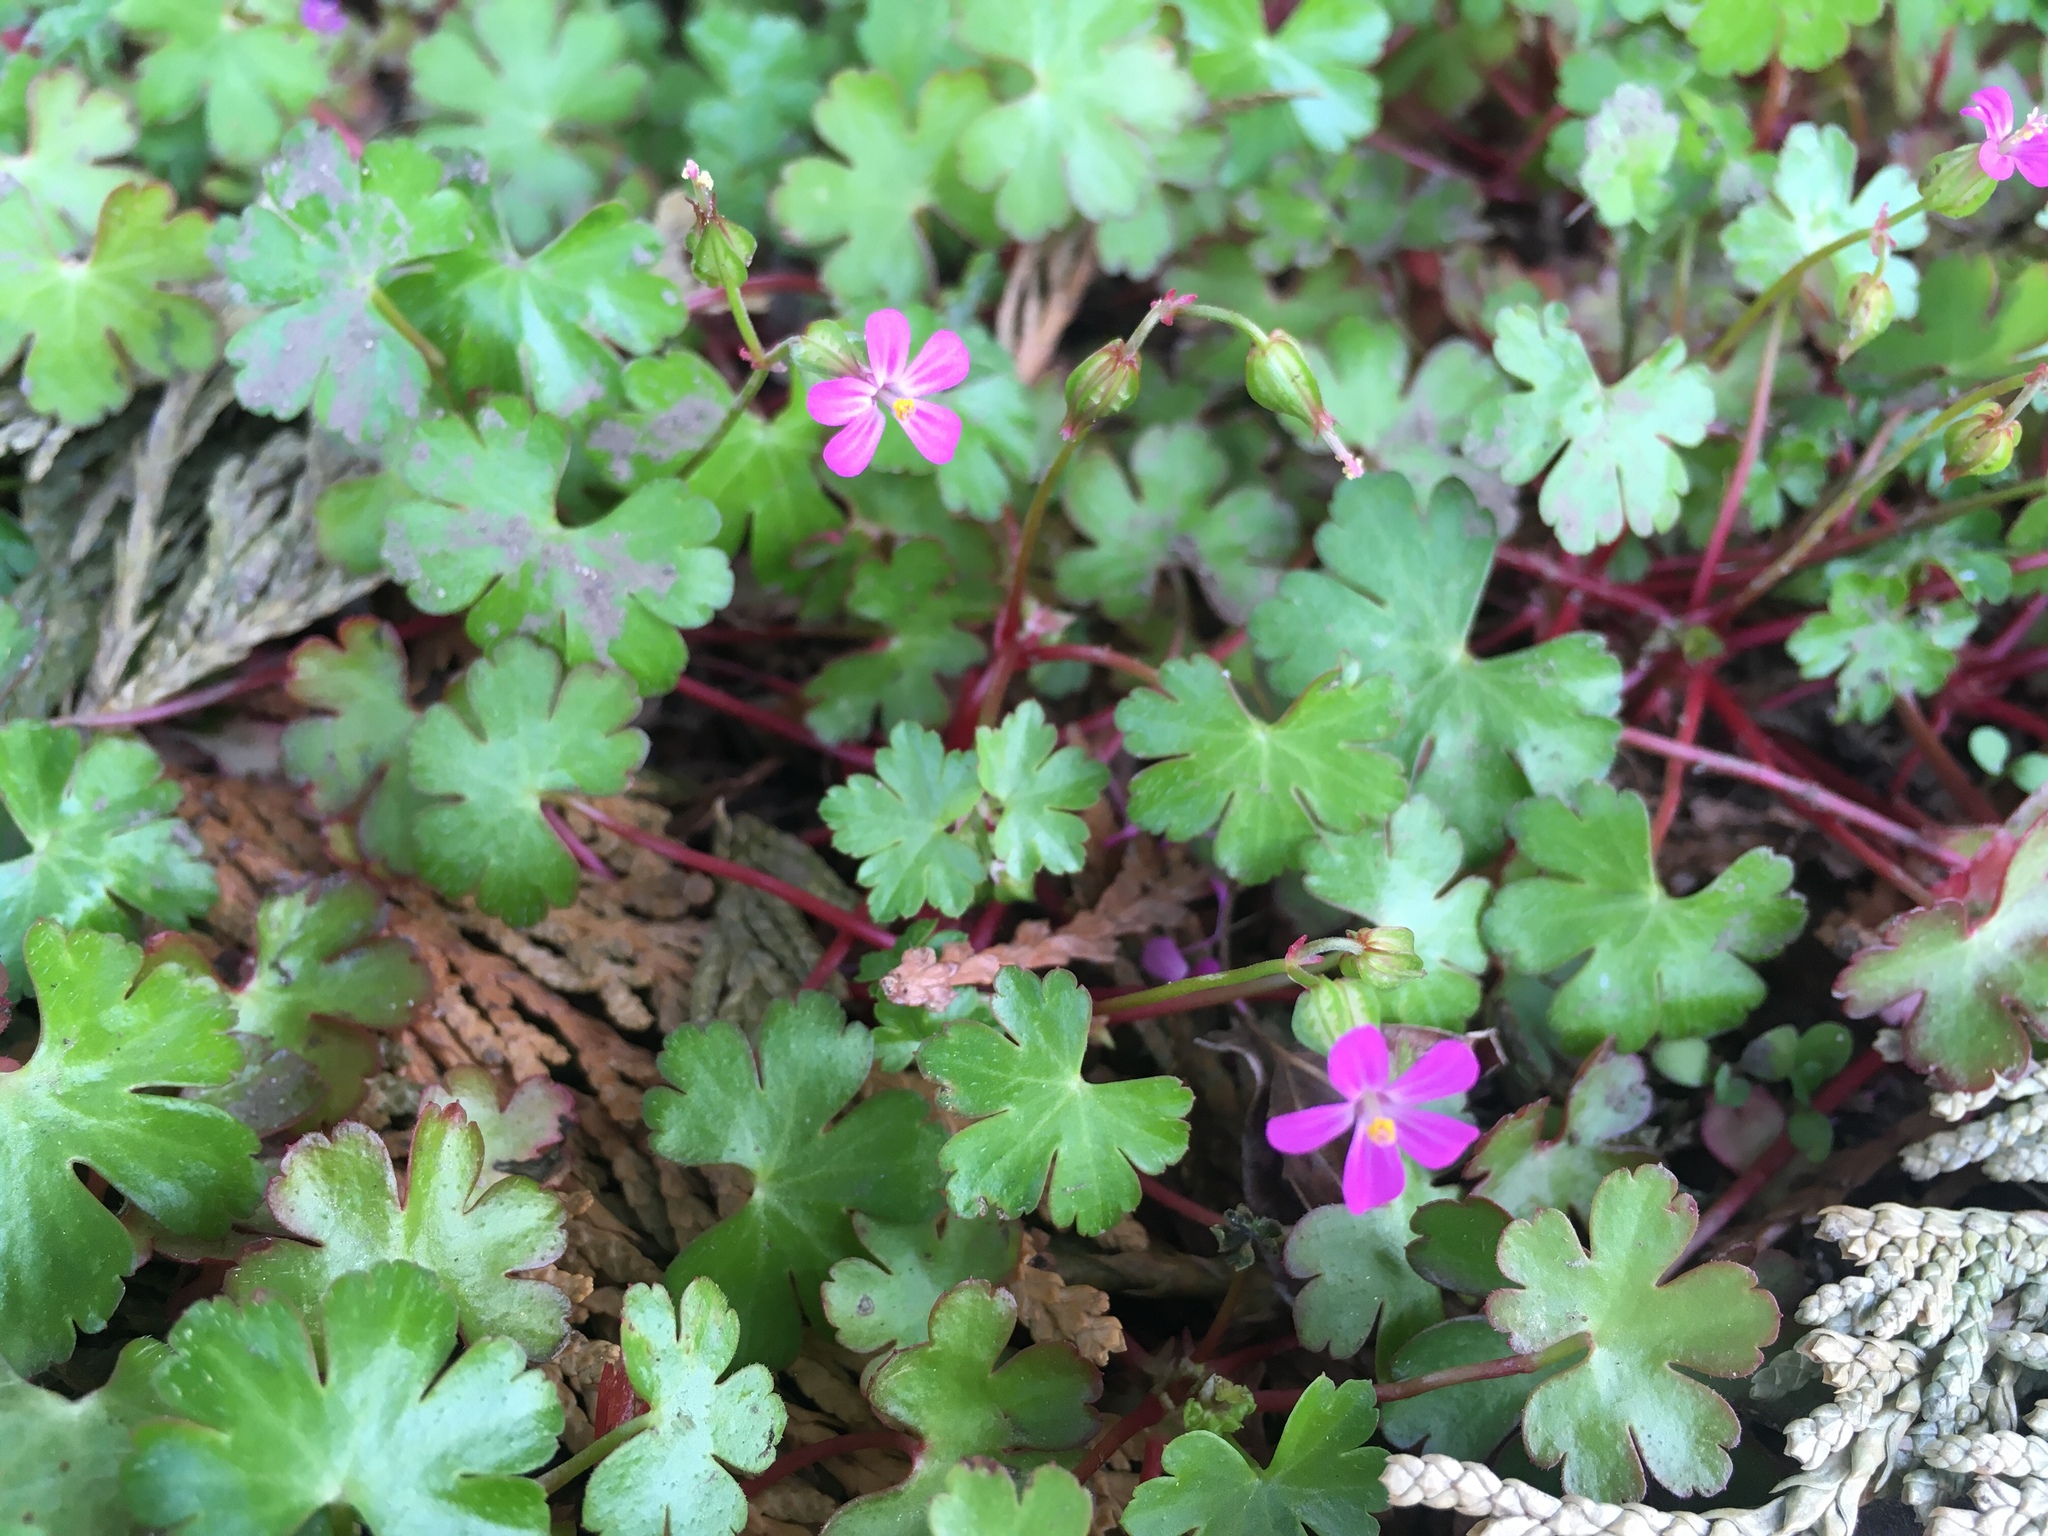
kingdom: Plantae
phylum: Tracheophyta
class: Magnoliopsida
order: Geraniales
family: Geraniaceae
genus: Geranium
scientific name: Geranium lucidum
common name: Shining crane's-bill
